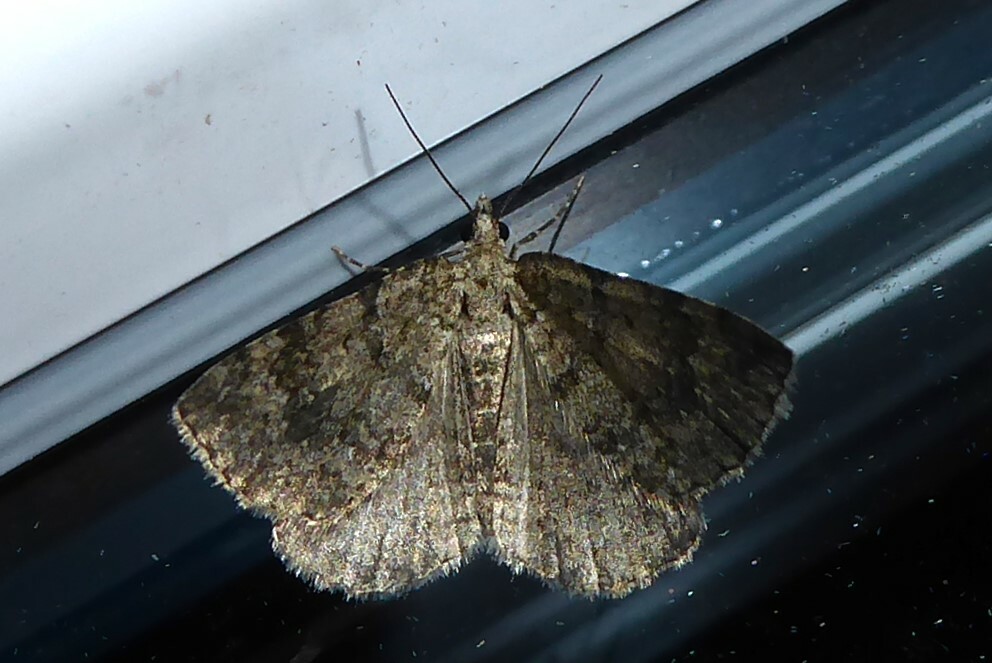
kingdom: Animalia
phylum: Arthropoda
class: Insecta
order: Lepidoptera
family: Geometridae
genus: Helastia
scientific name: Helastia corcularia
